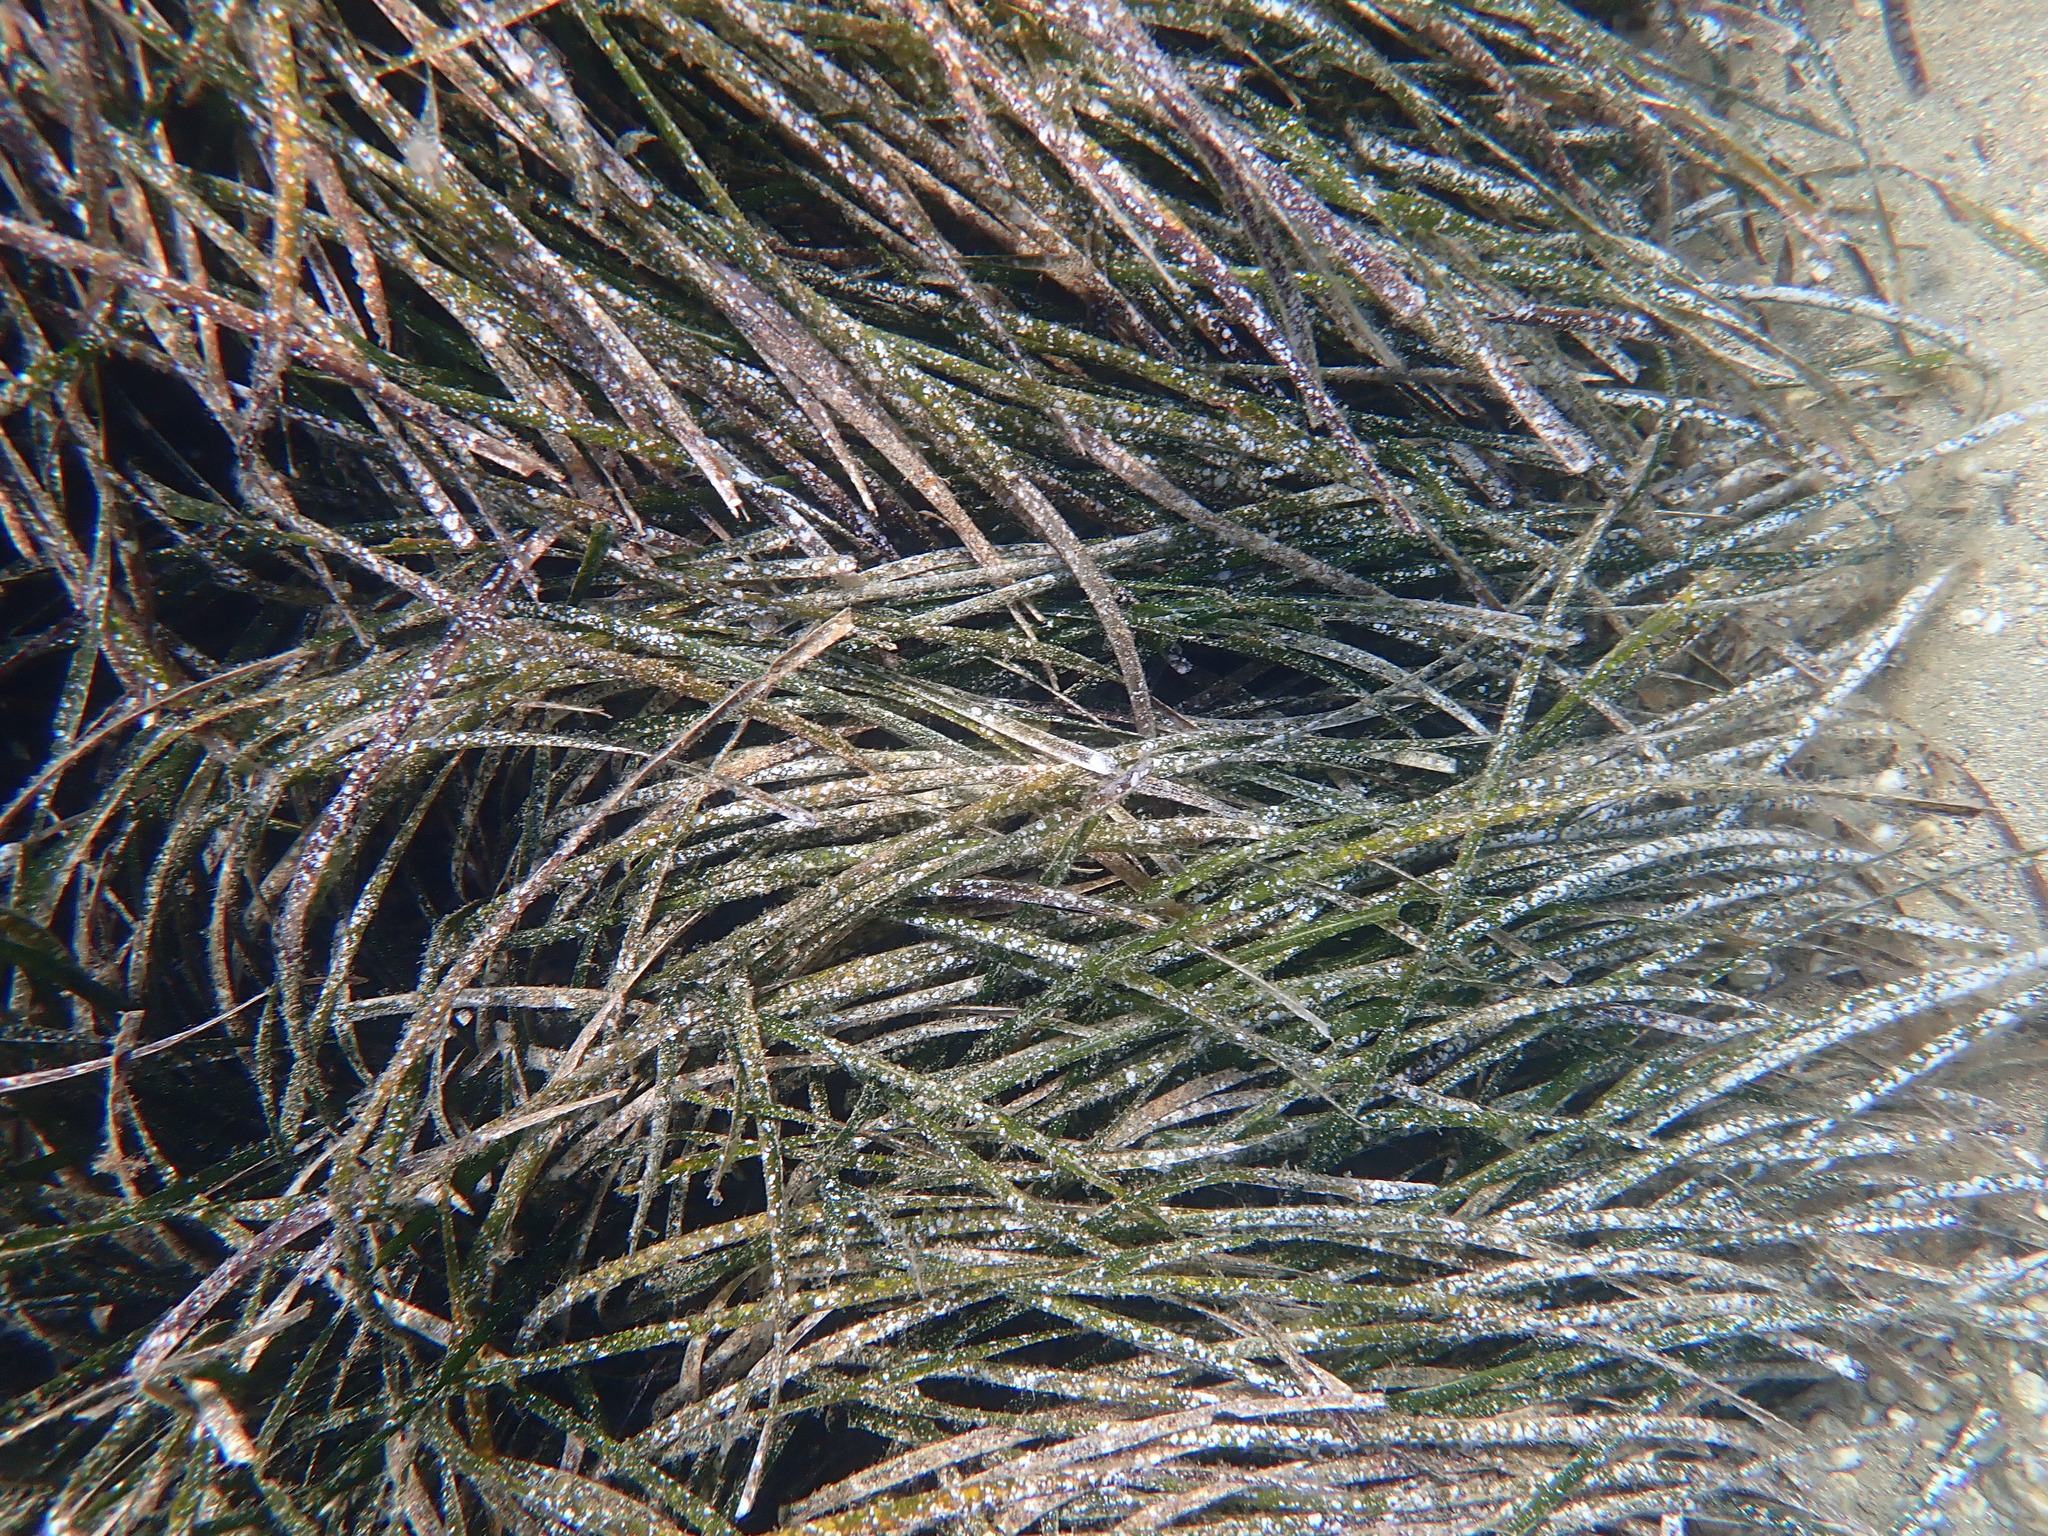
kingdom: Plantae
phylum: Tracheophyta
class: Liliopsida
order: Alismatales
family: Posidoniaceae
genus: Posidonia
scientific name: Posidonia oceanica
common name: Mediterranean tapeweed
